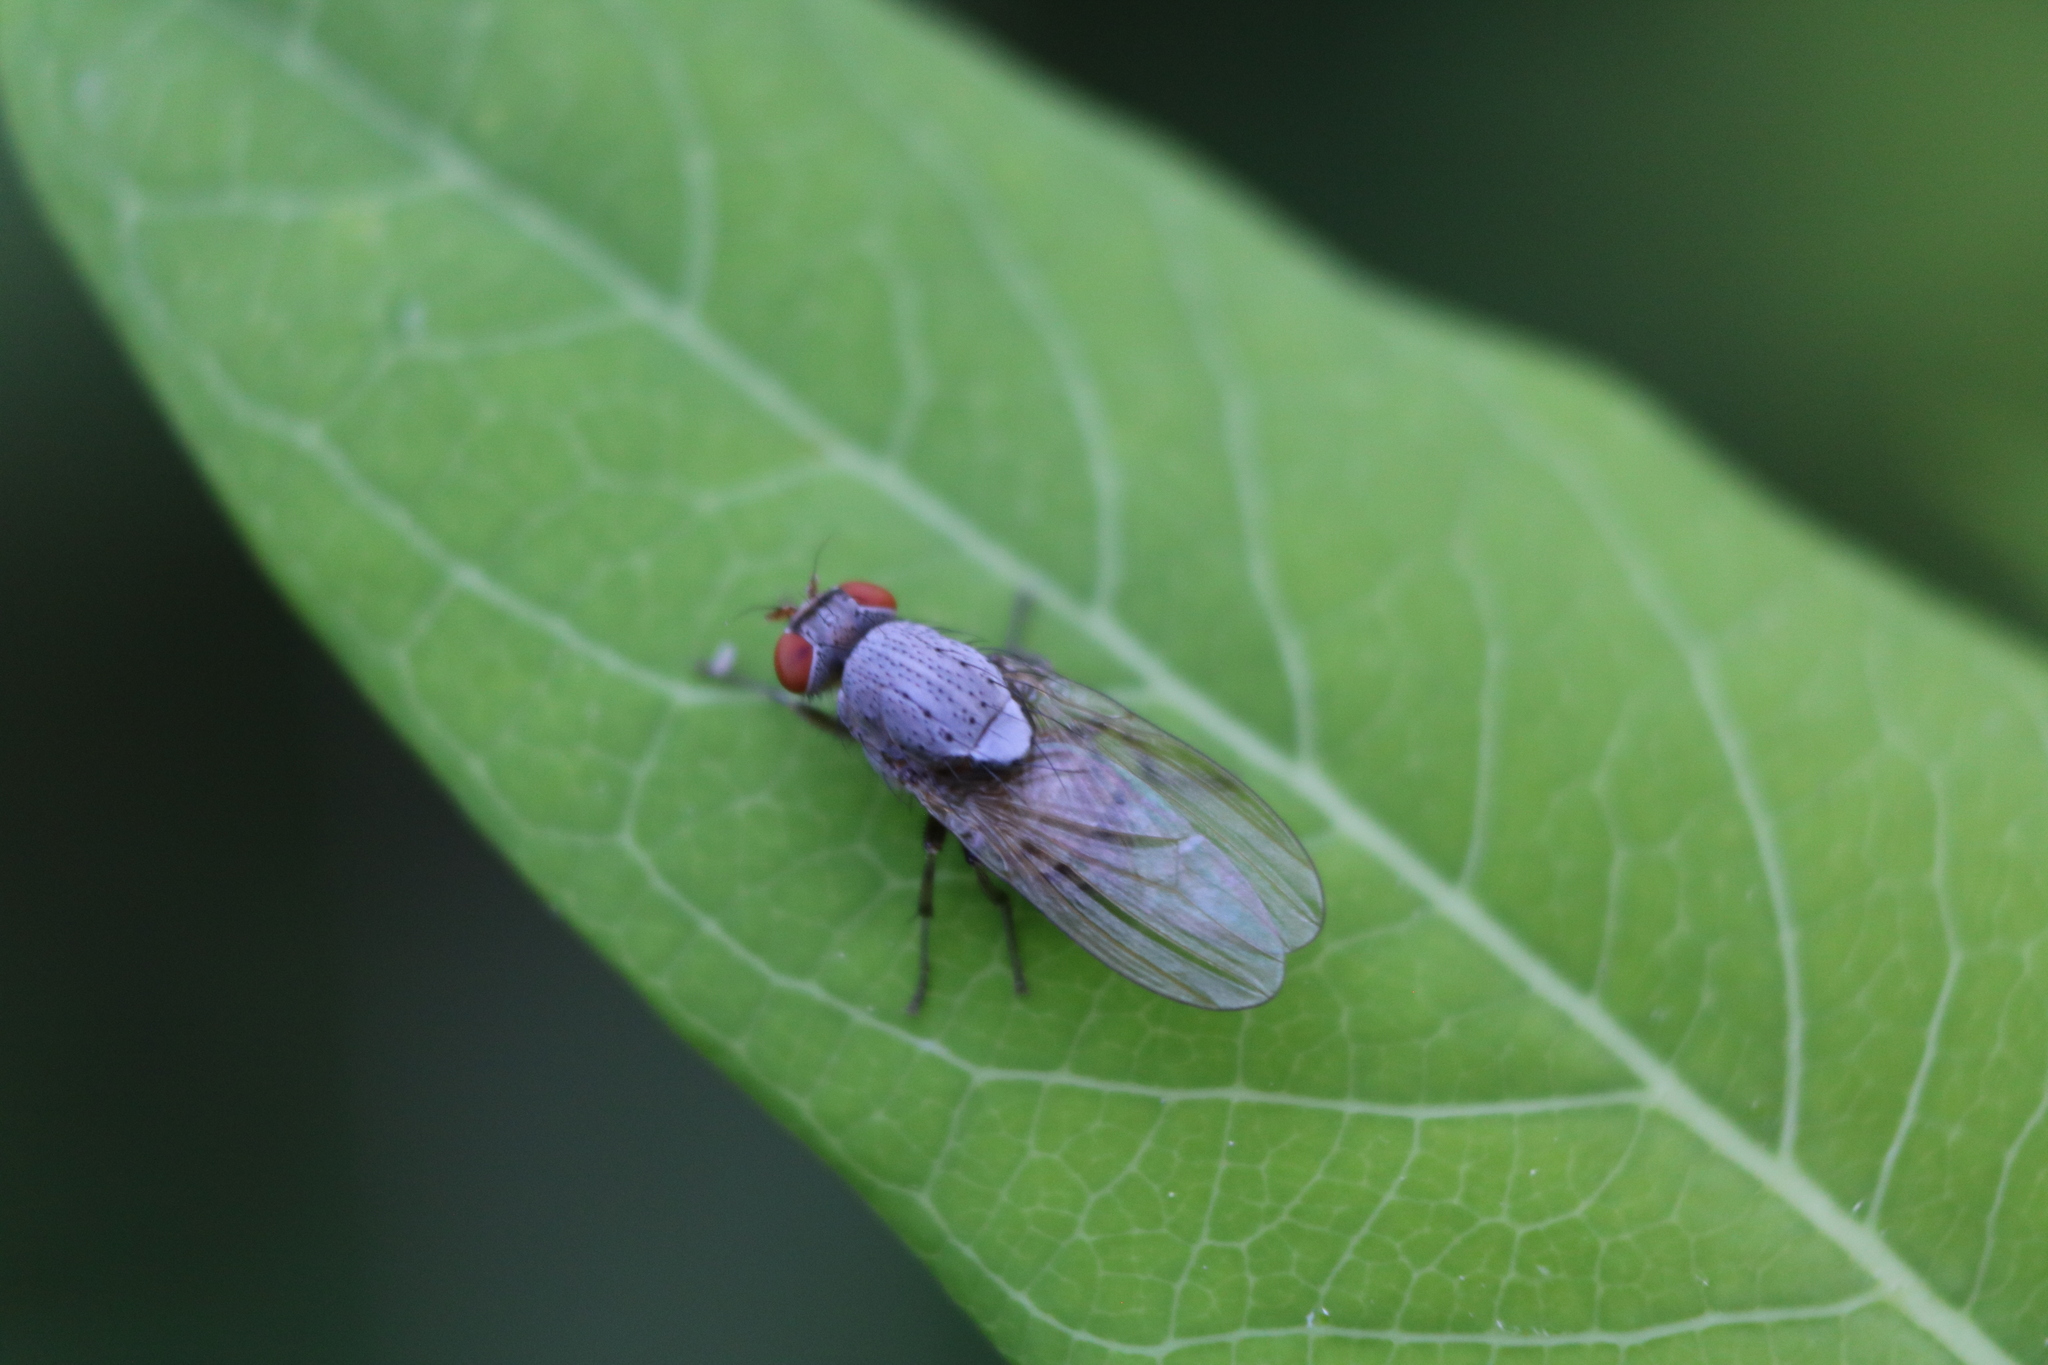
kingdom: Animalia
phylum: Arthropoda
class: Insecta
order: Diptera
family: Lauxaniidae
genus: Minettia
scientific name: Minettia magna
